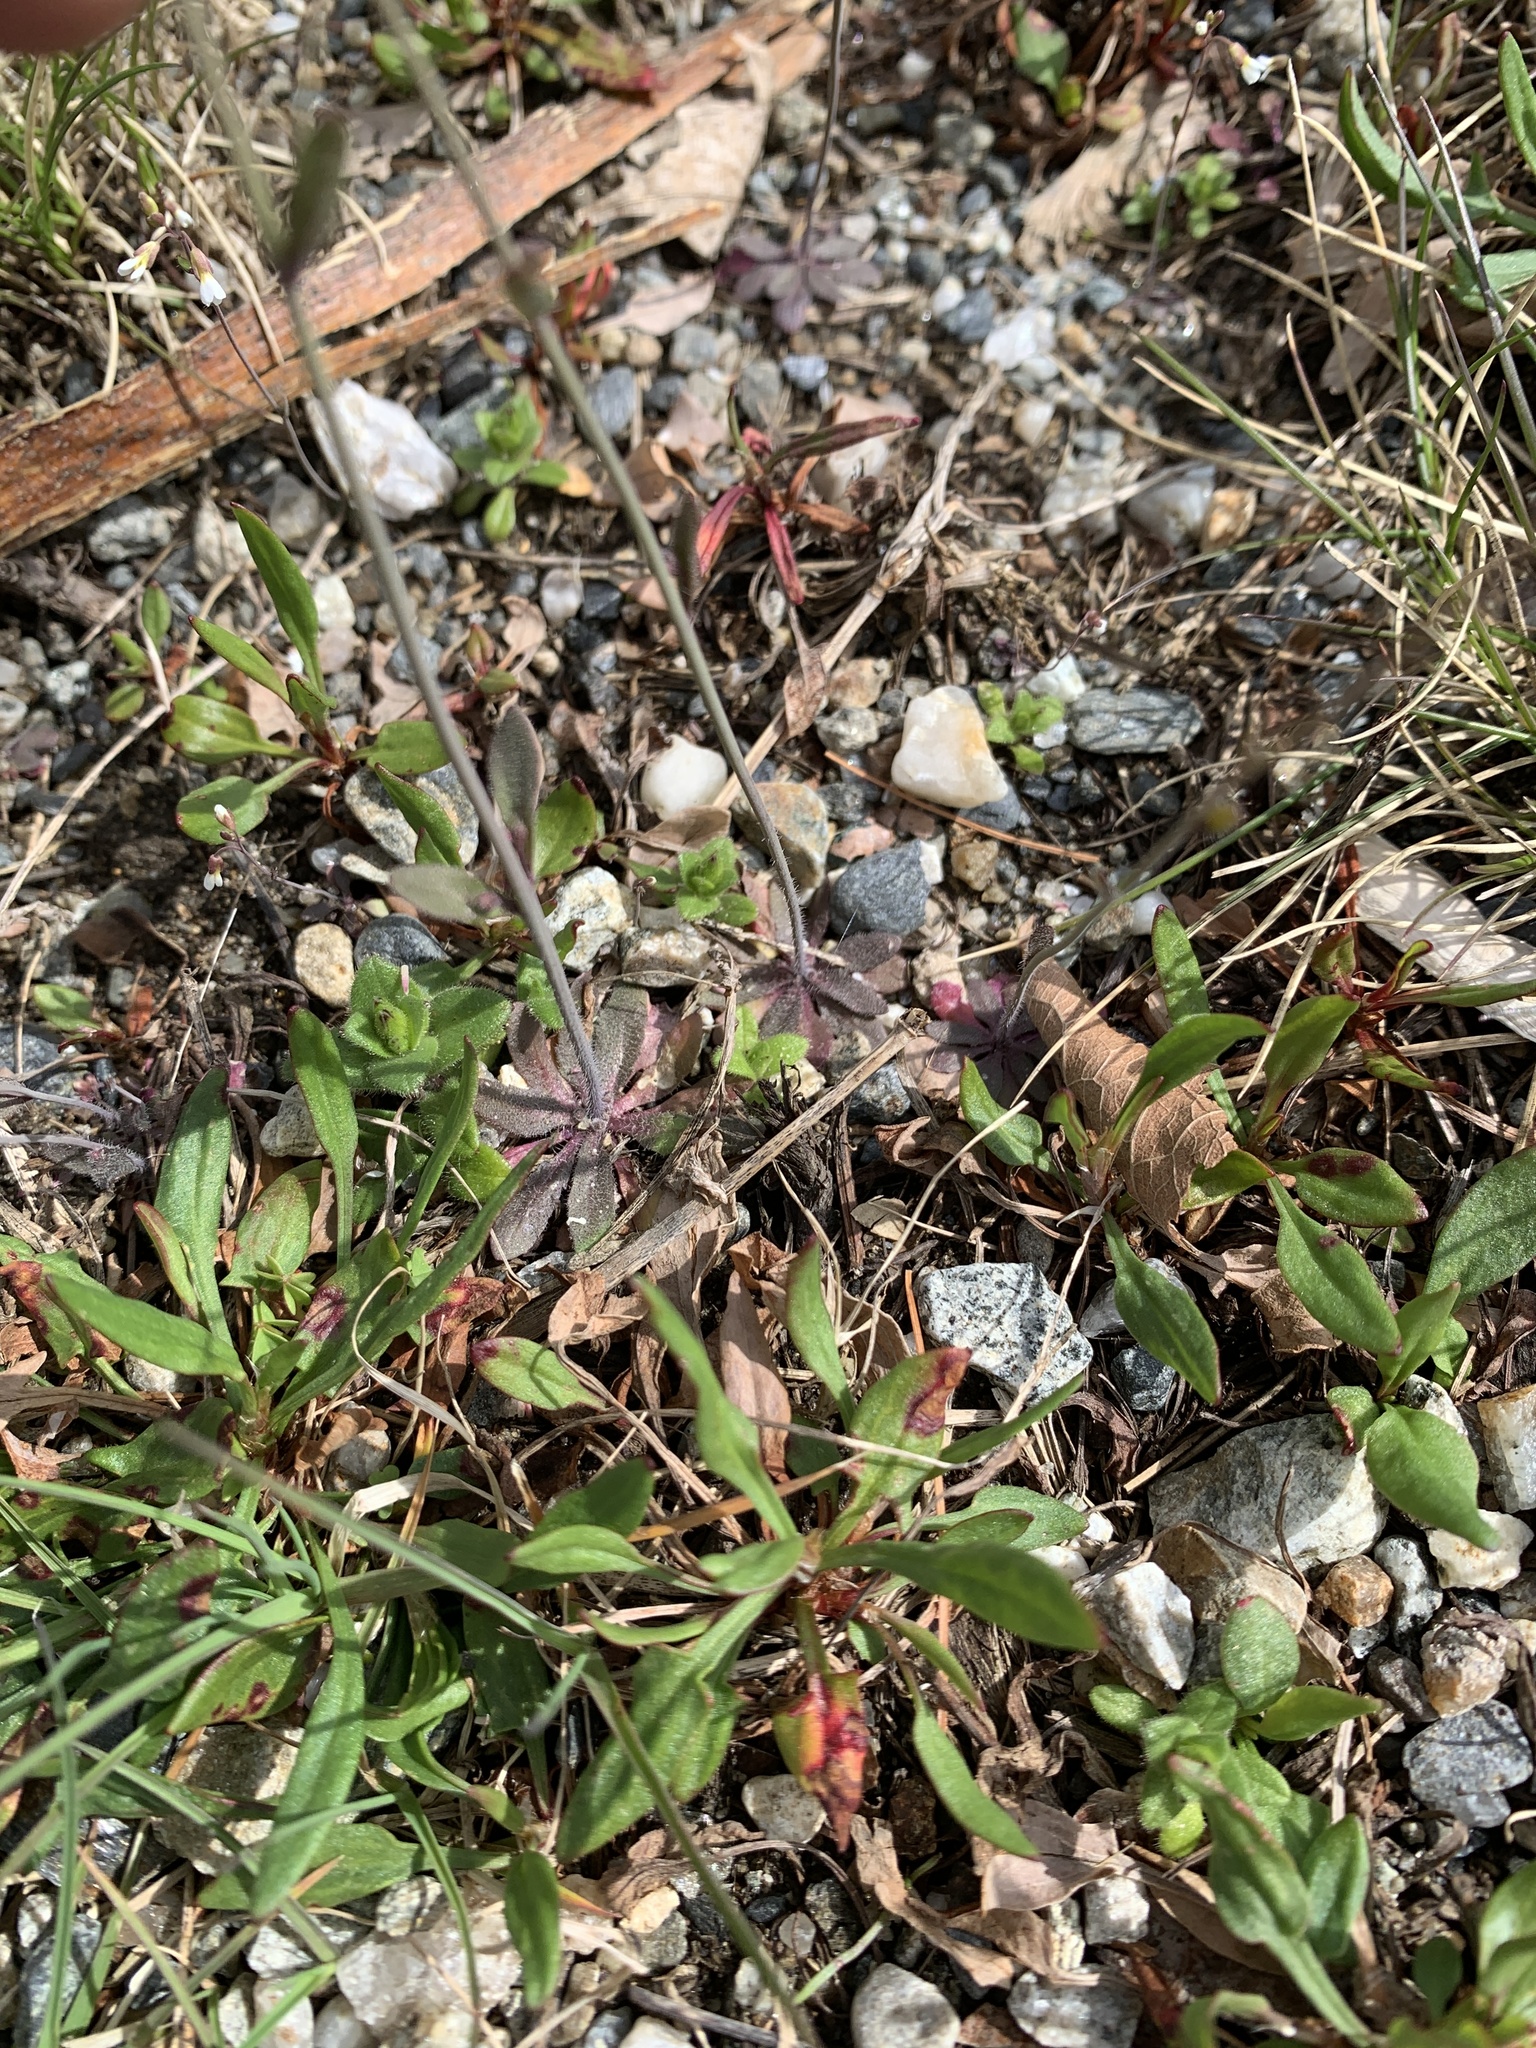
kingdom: Plantae
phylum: Tracheophyta
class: Magnoliopsida
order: Brassicales
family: Brassicaceae
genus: Arabidopsis
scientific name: Arabidopsis thaliana
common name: Thale cress
